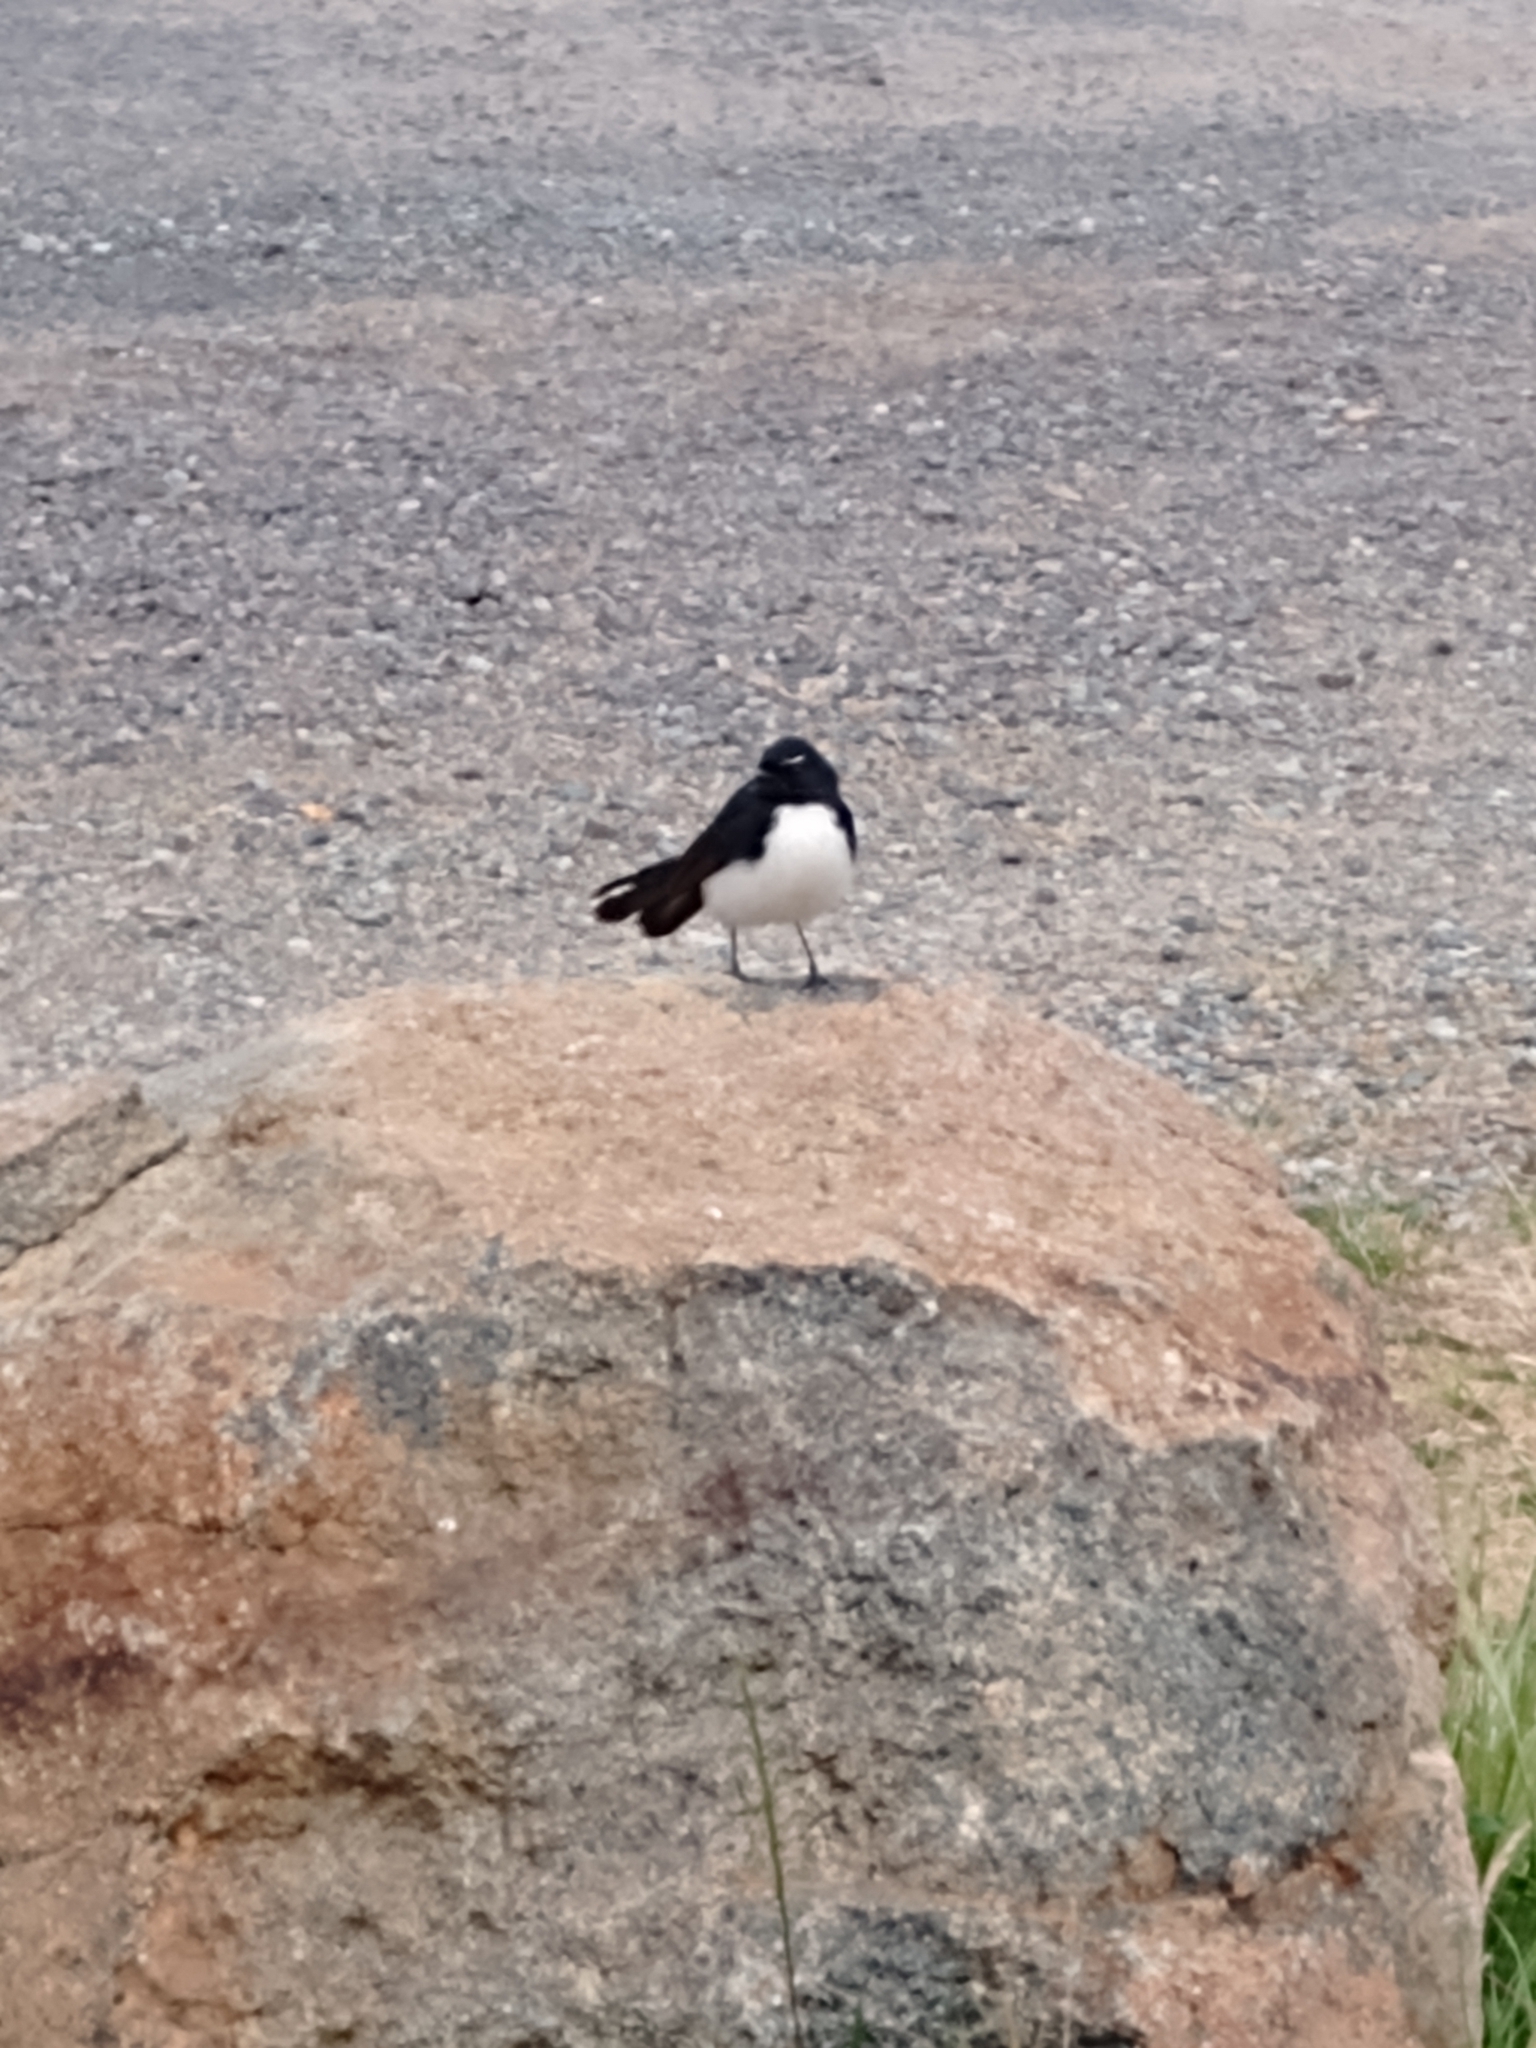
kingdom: Animalia
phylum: Chordata
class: Aves
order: Passeriformes
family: Rhipiduridae
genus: Rhipidura
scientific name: Rhipidura leucophrys
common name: Willie wagtail
